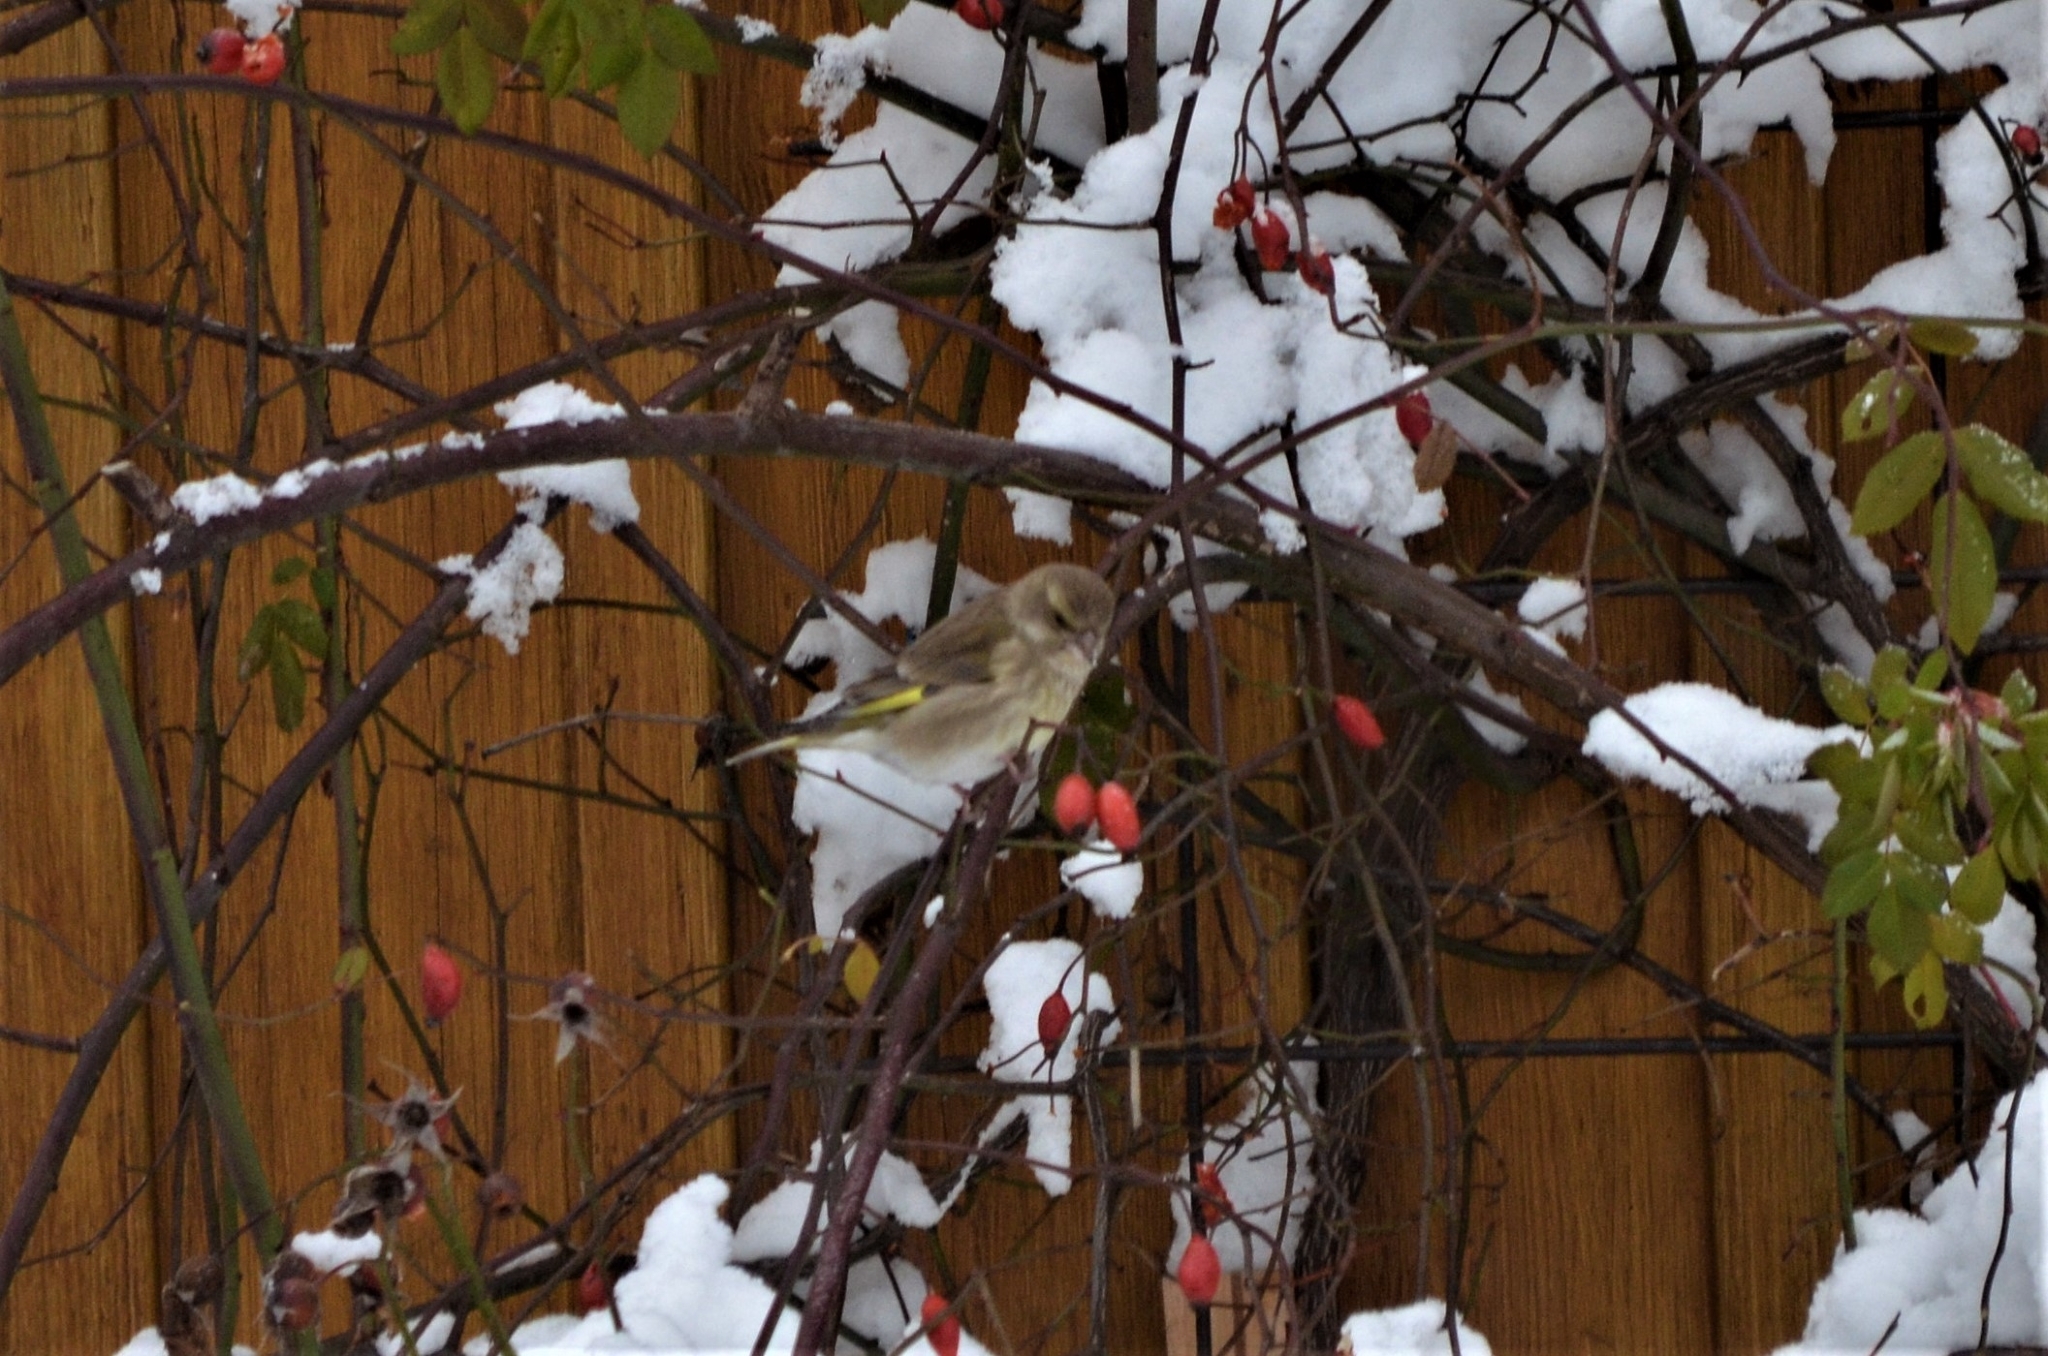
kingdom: Plantae
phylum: Tracheophyta
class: Liliopsida
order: Poales
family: Poaceae
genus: Chloris
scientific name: Chloris chloris
